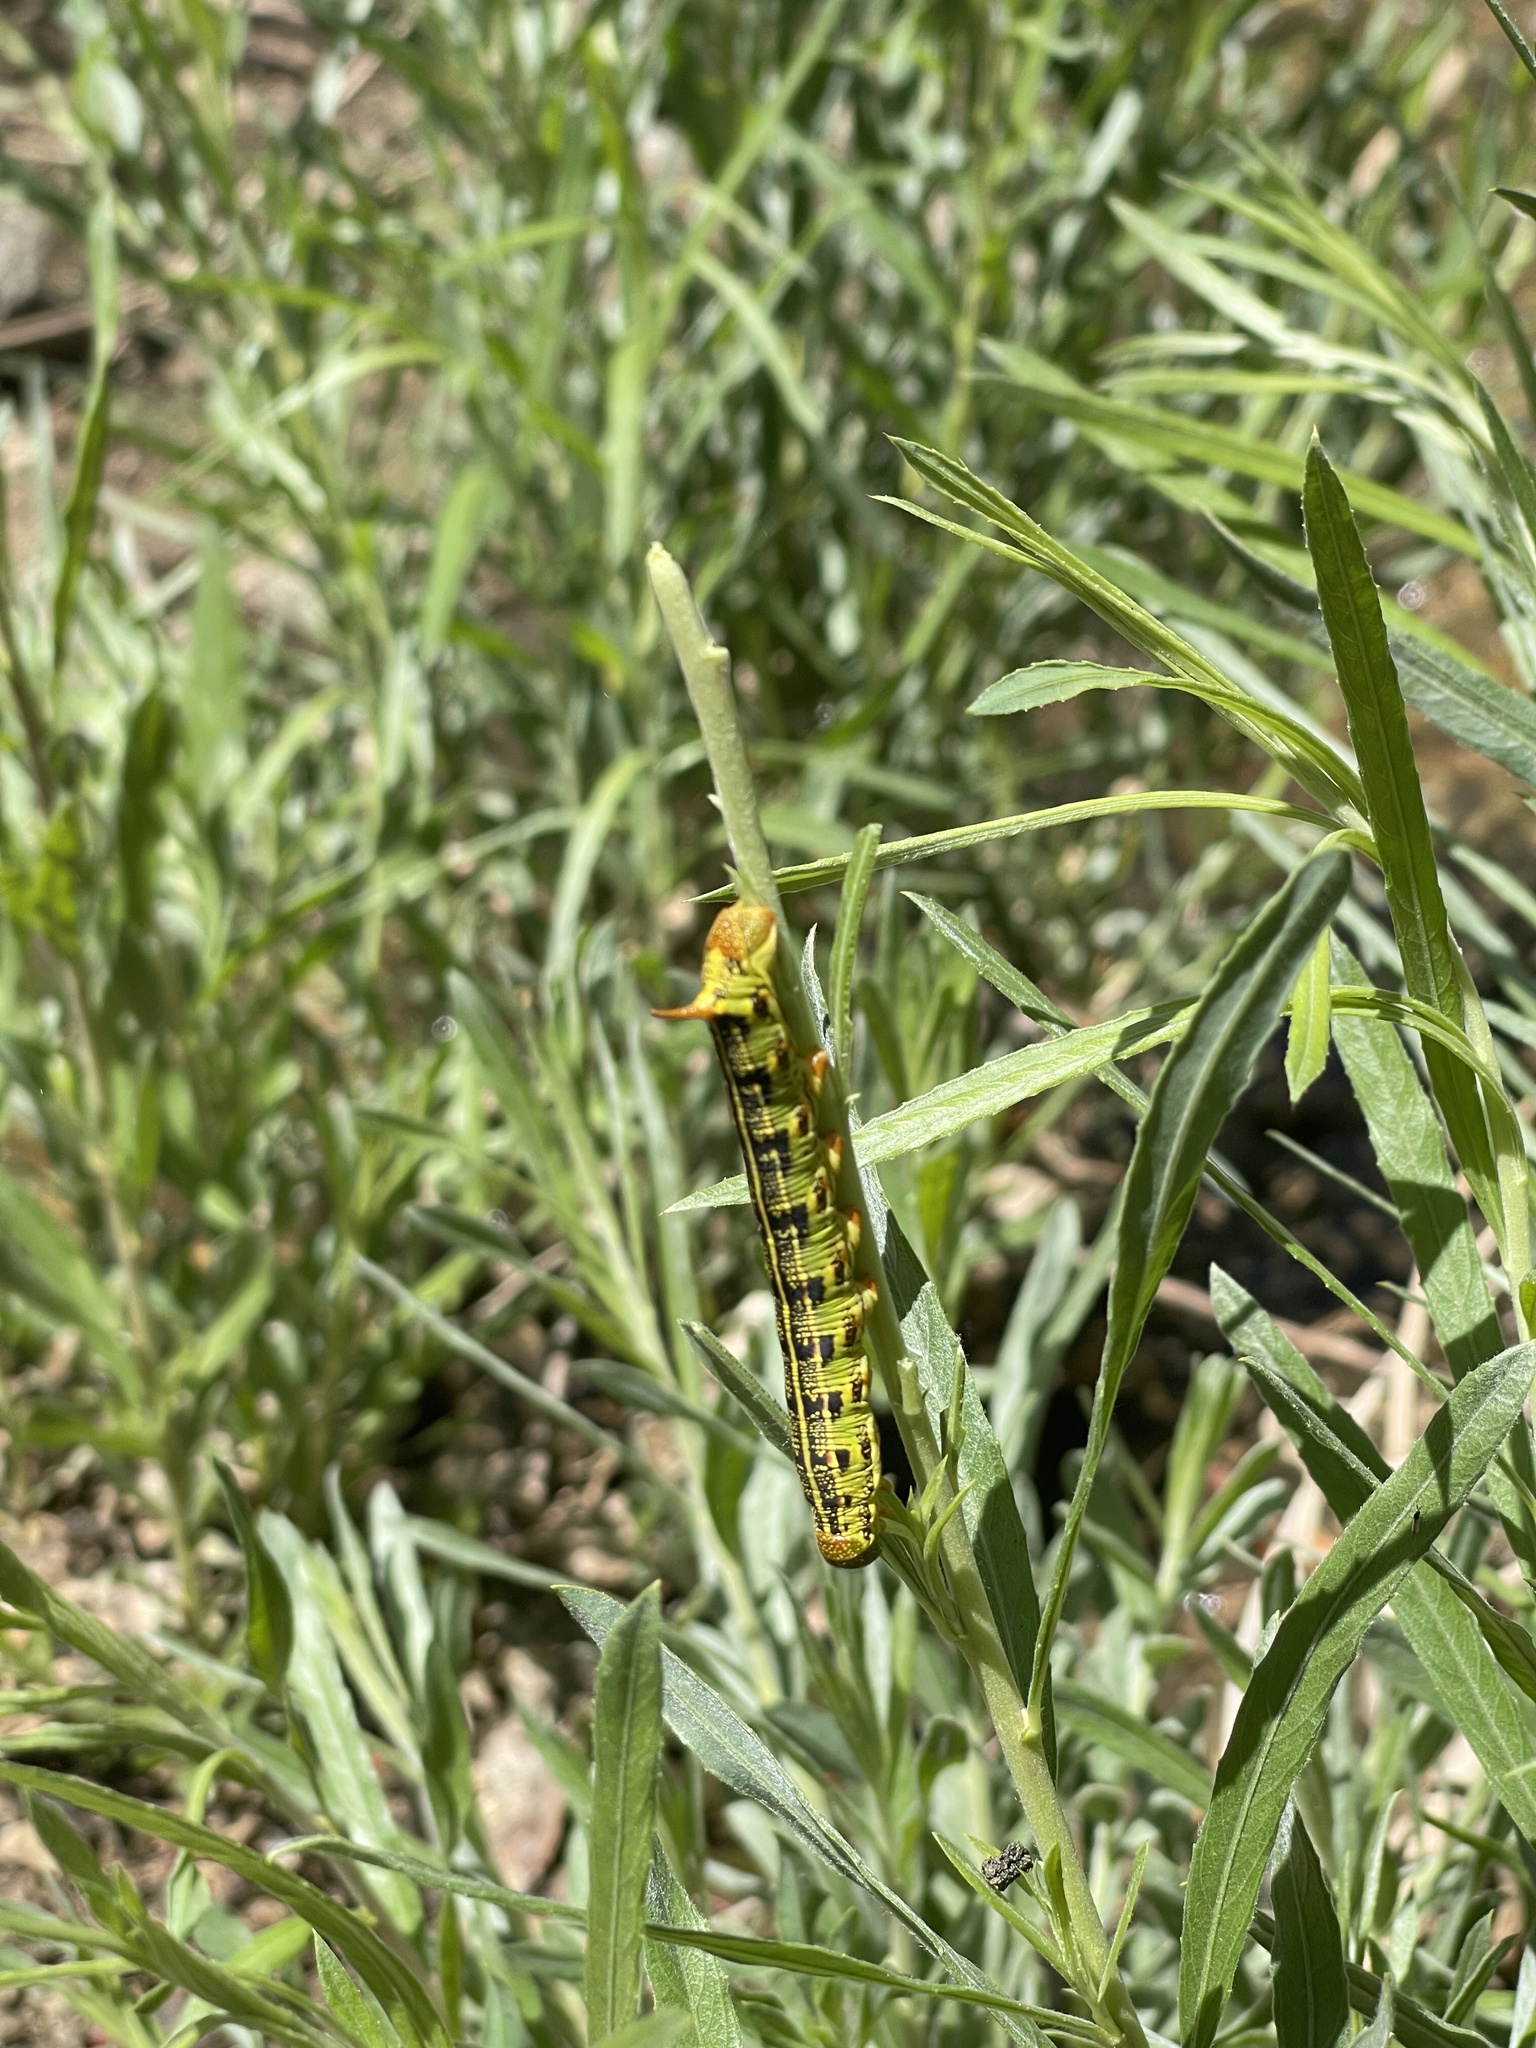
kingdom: Animalia
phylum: Arthropoda
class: Insecta
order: Lepidoptera
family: Sphingidae
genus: Hyles
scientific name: Hyles lineata
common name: White-lined sphinx
